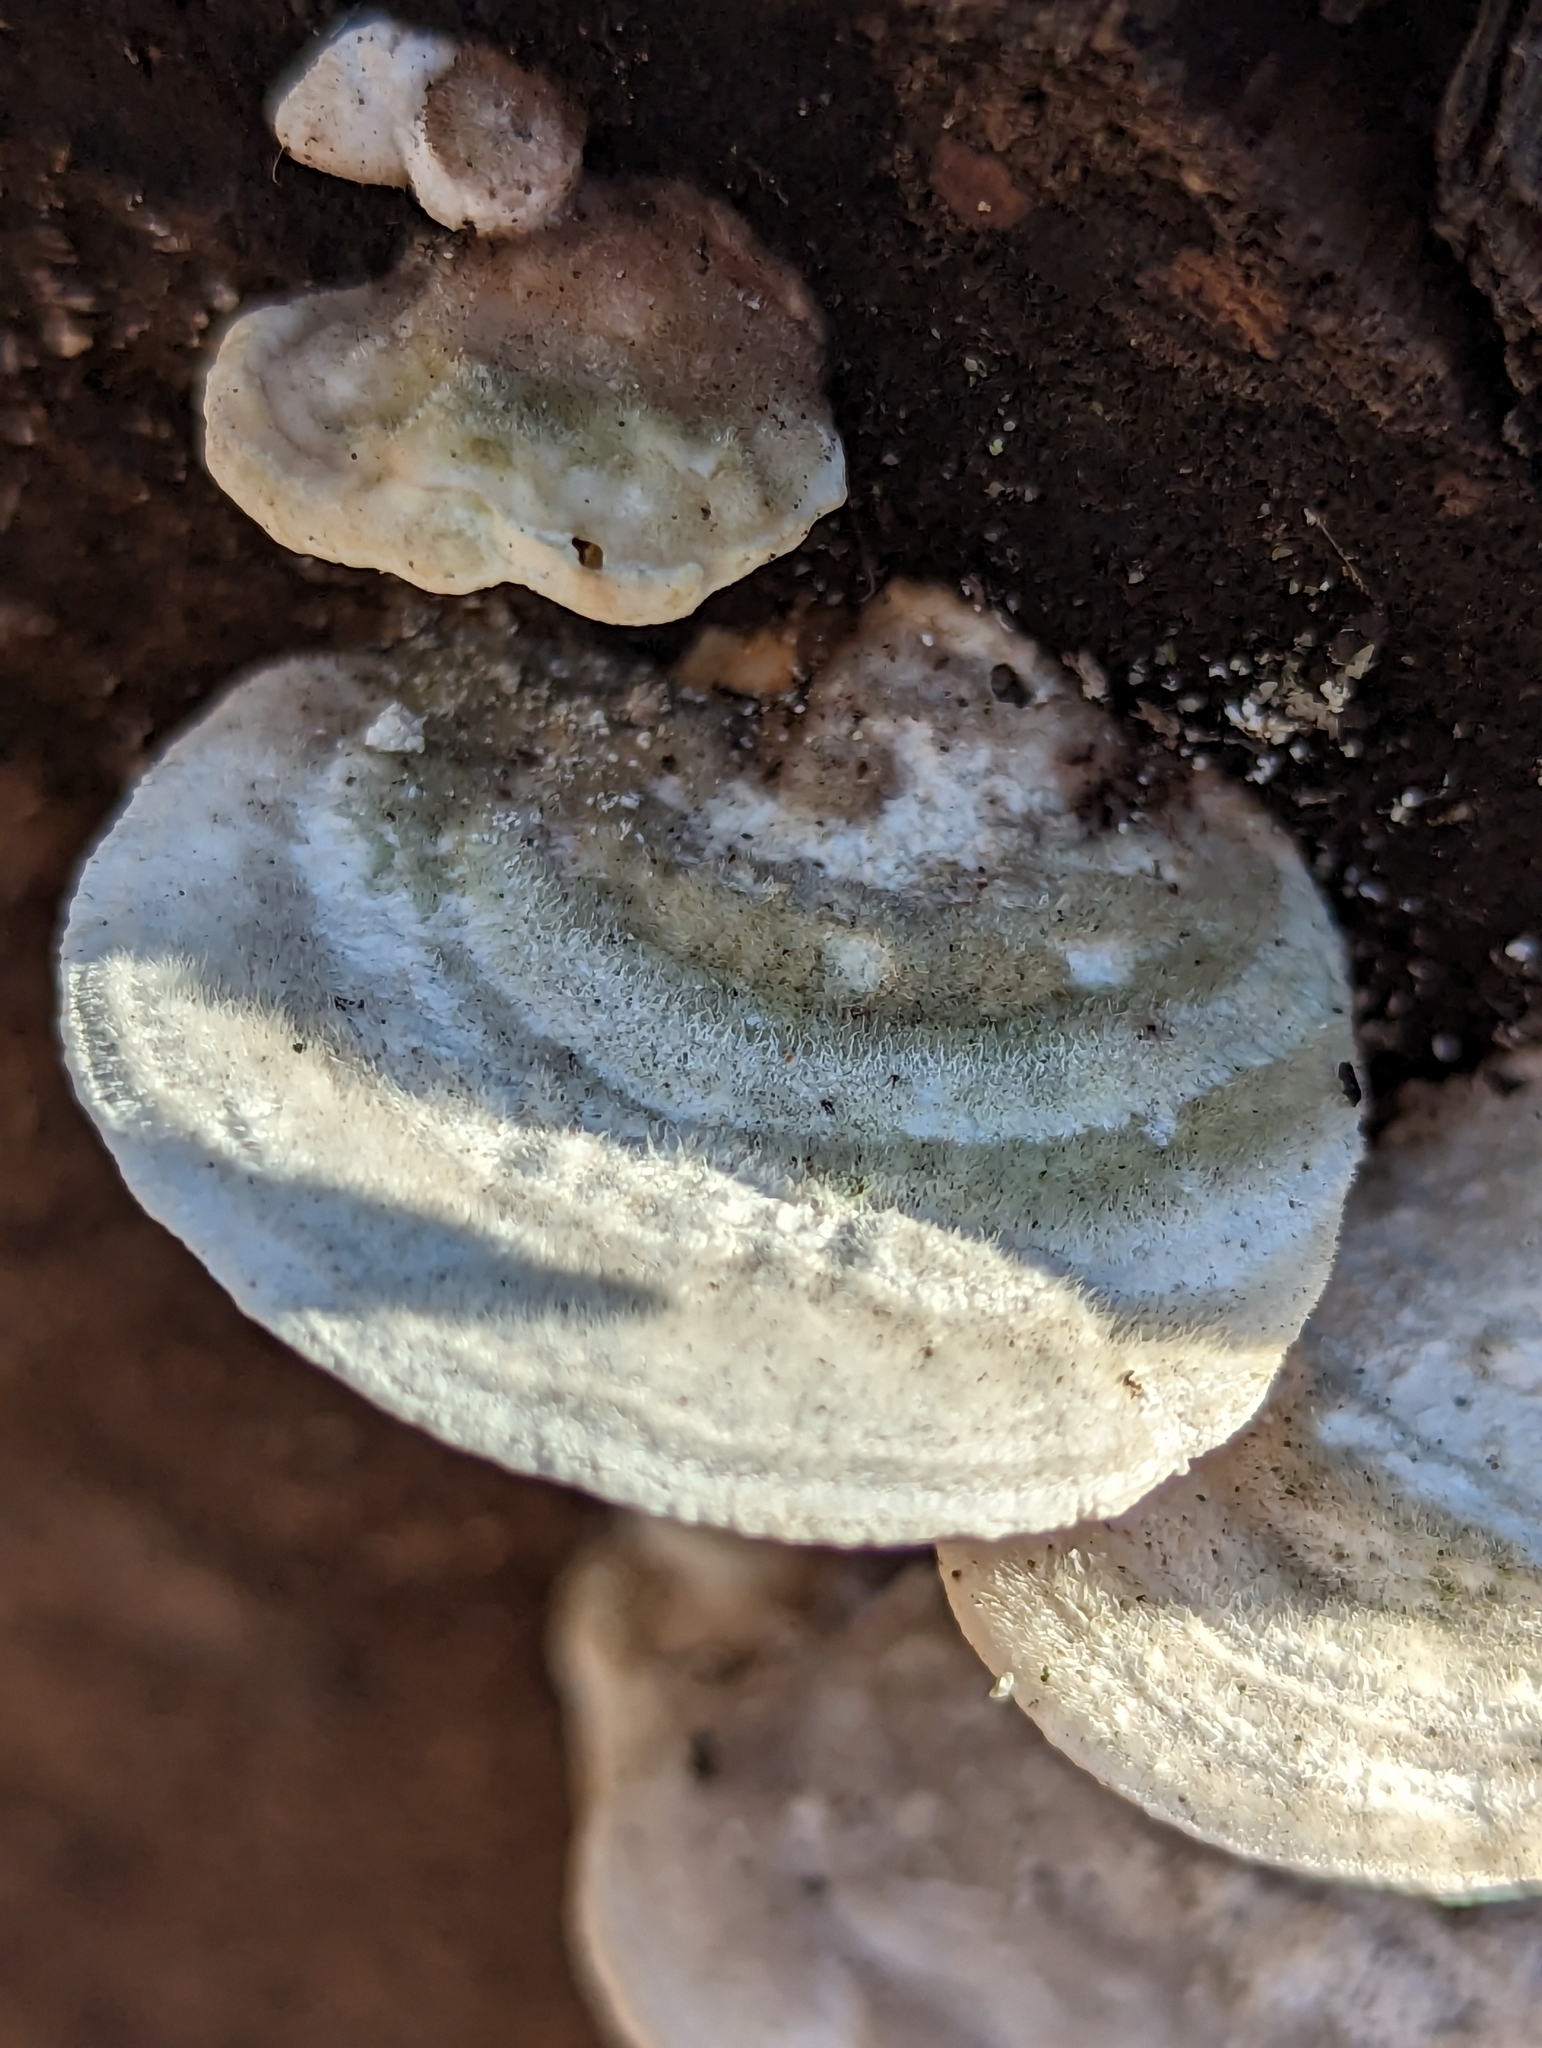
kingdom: Fungi
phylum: Basidiomycota
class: Agaricomycetes
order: Polyporales
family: Polyporaceae
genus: Trametes
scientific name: Trametes gibbosa
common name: Lumpy bracket
